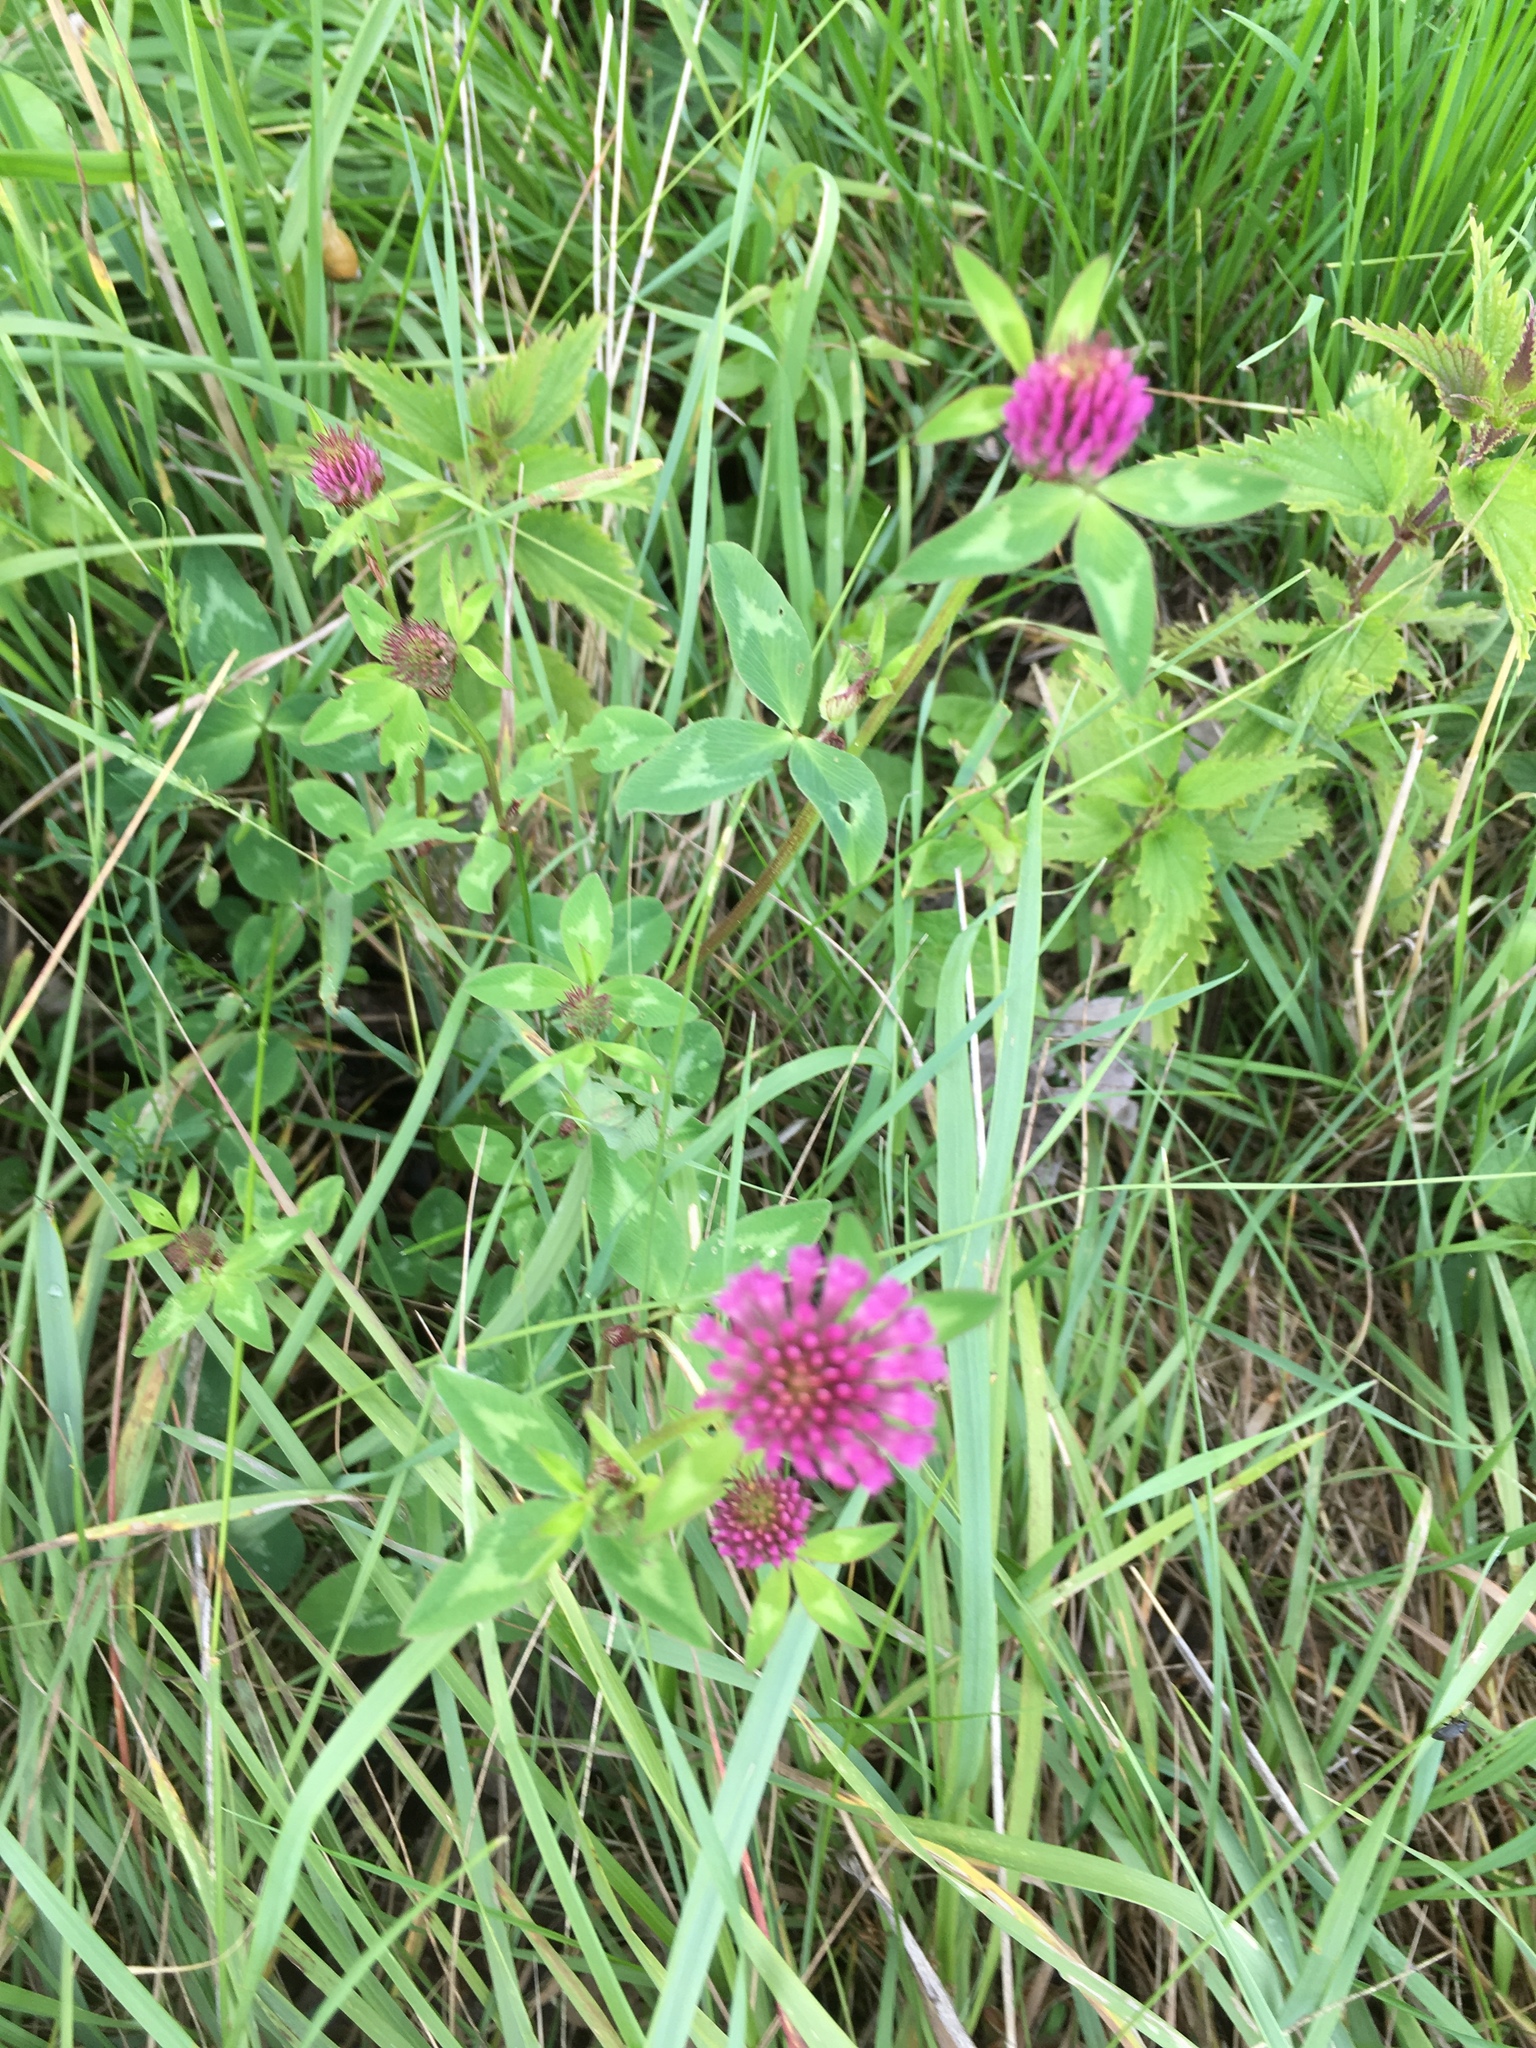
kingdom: Plantae
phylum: Tracheophyta
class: Magnoliopsida
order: Fabales
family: Fabaceae
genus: Trifolium
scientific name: Trifolium medium
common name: Zigzag clover
